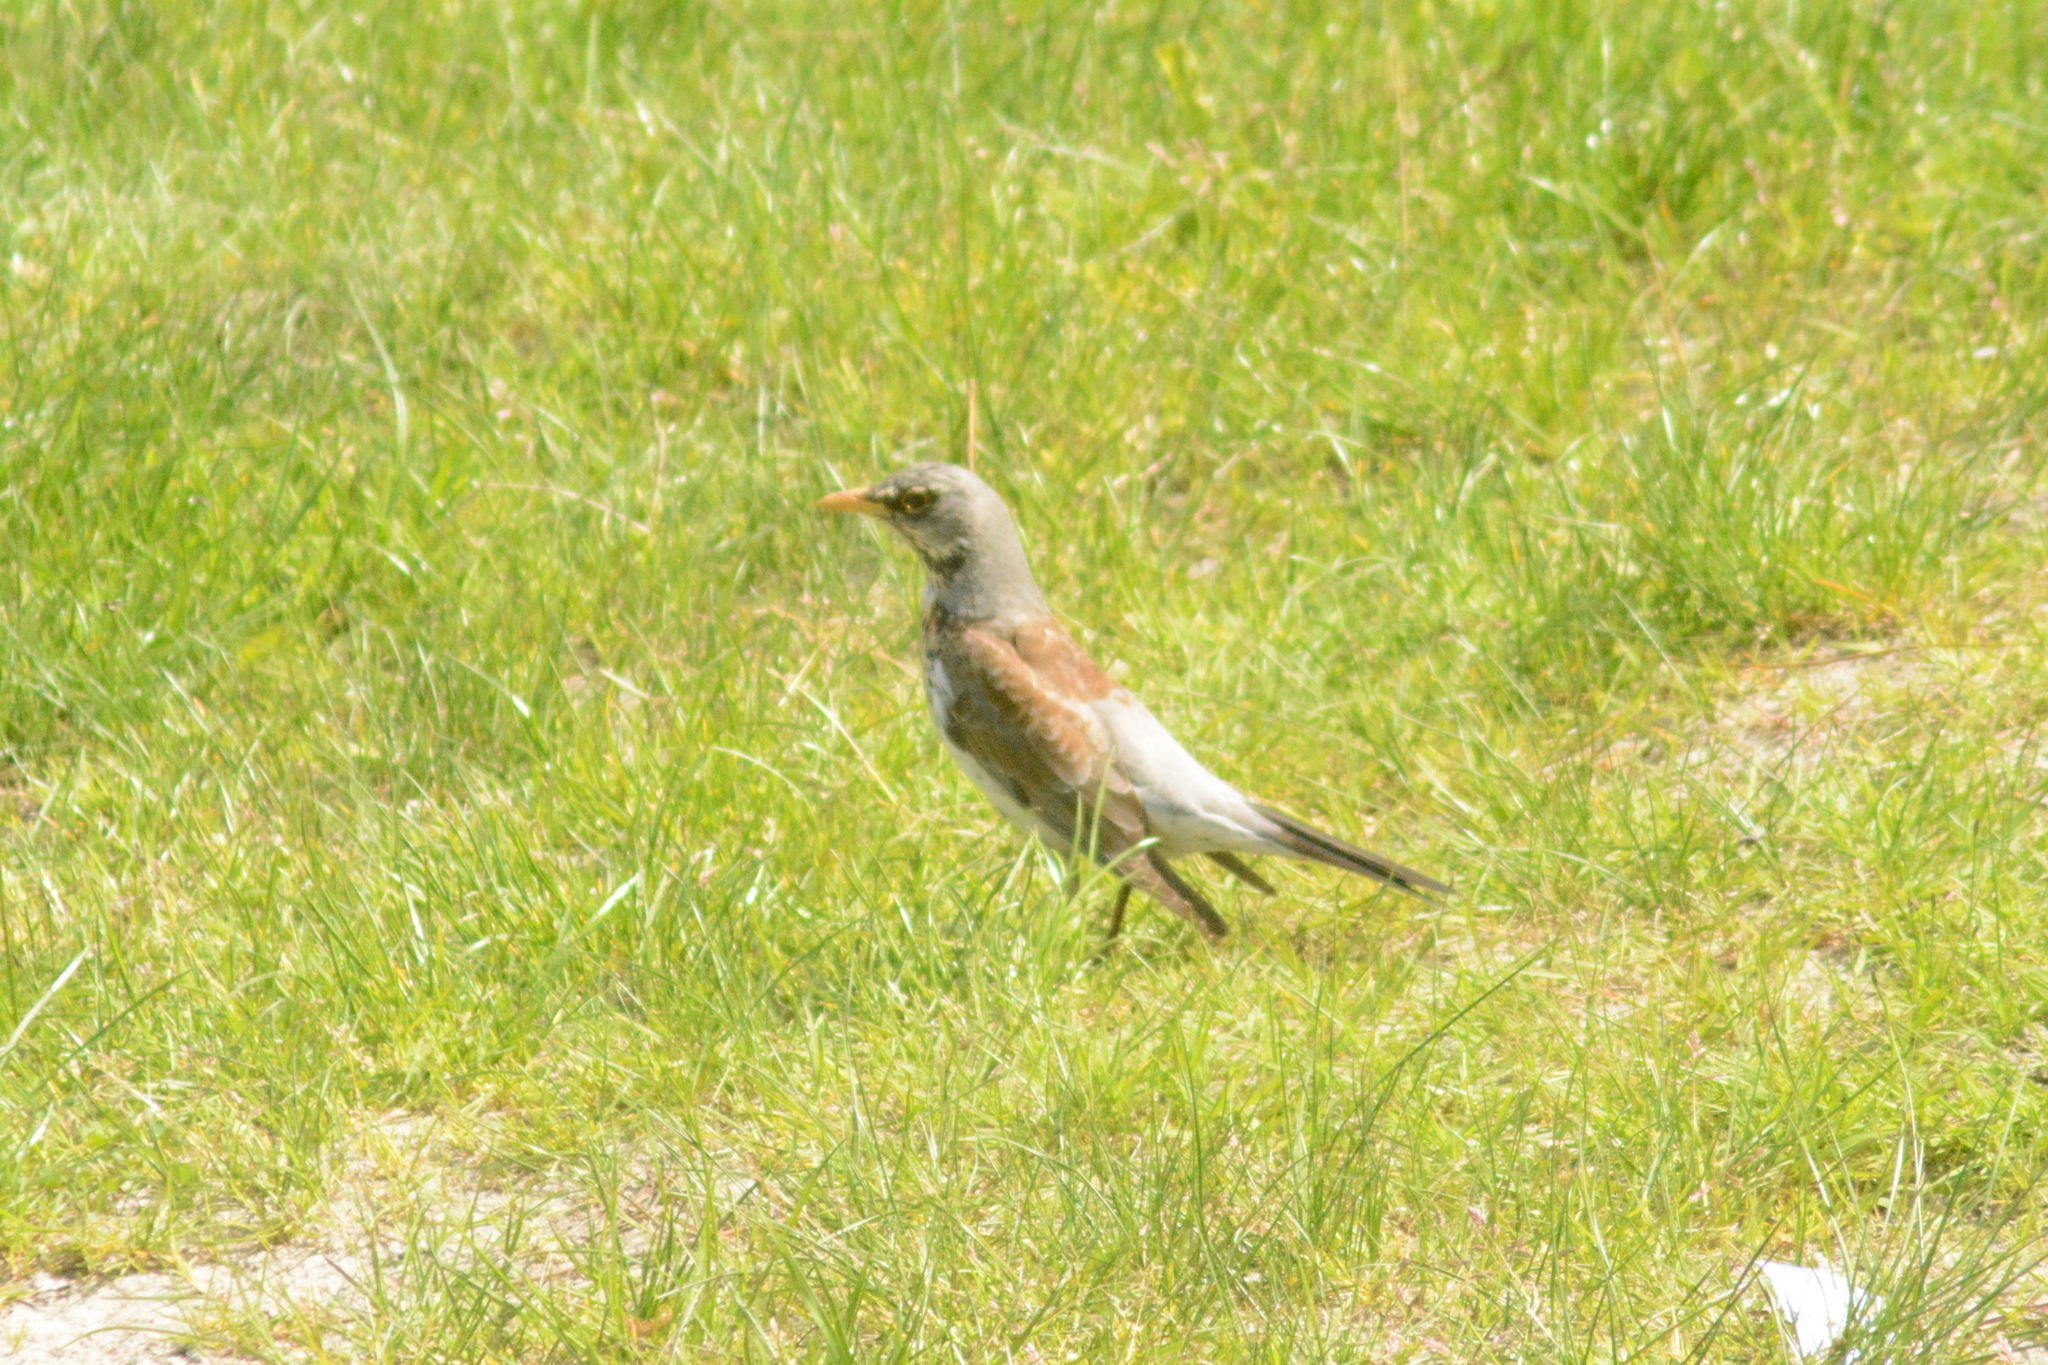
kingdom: Animalia
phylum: Chordata
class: Aves
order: Passeriformes
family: Turdidae
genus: Turdus
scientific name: Turdus pilaris
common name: Fieldfare
